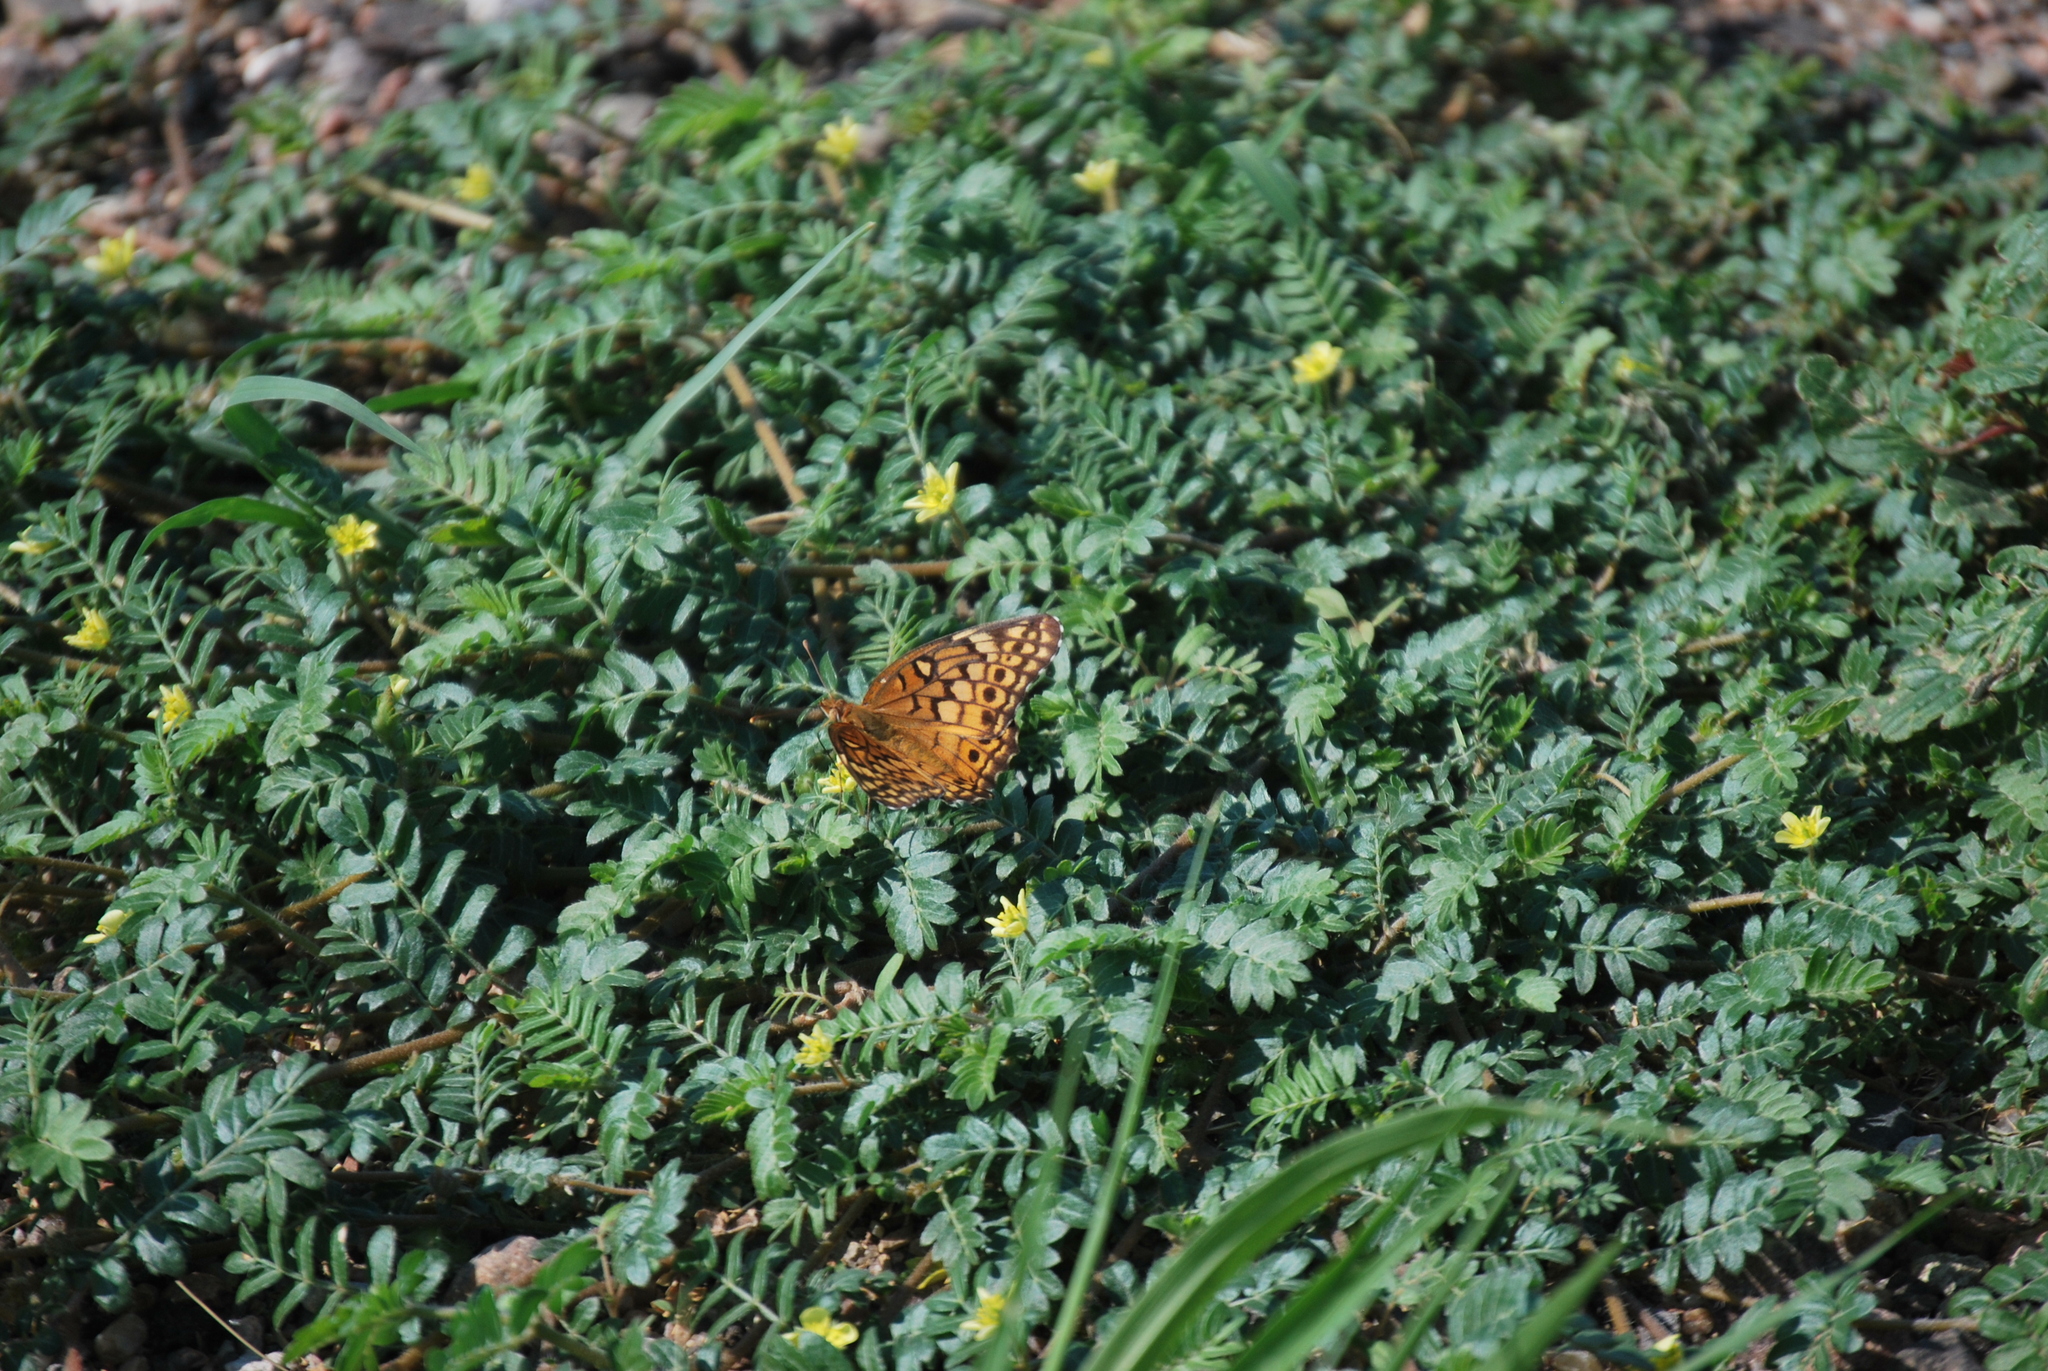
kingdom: Animalia
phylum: Arthropoda
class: Insecta
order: Lepidoptera
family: Nymphalidae
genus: Euptoieta
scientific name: Euptoieta claudia
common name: Variegated fritillary
